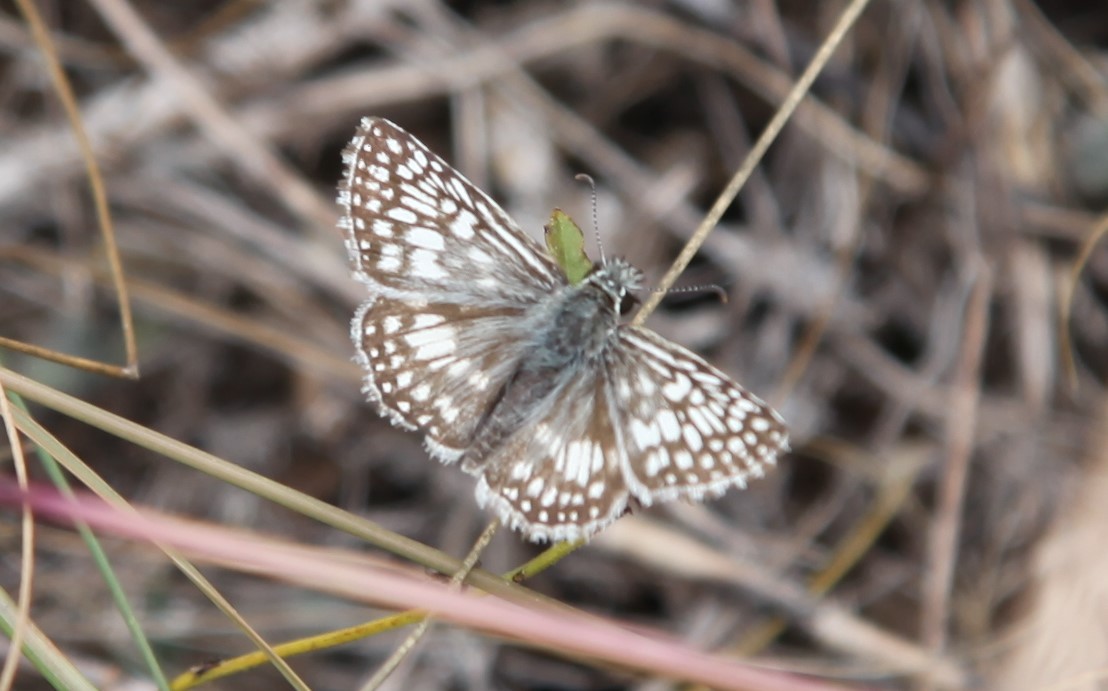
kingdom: Animalia
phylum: Arthropoda
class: Insecta
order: Lepidoptera
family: Hesperiidae
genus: Burnsius
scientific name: Burnsius philetas
